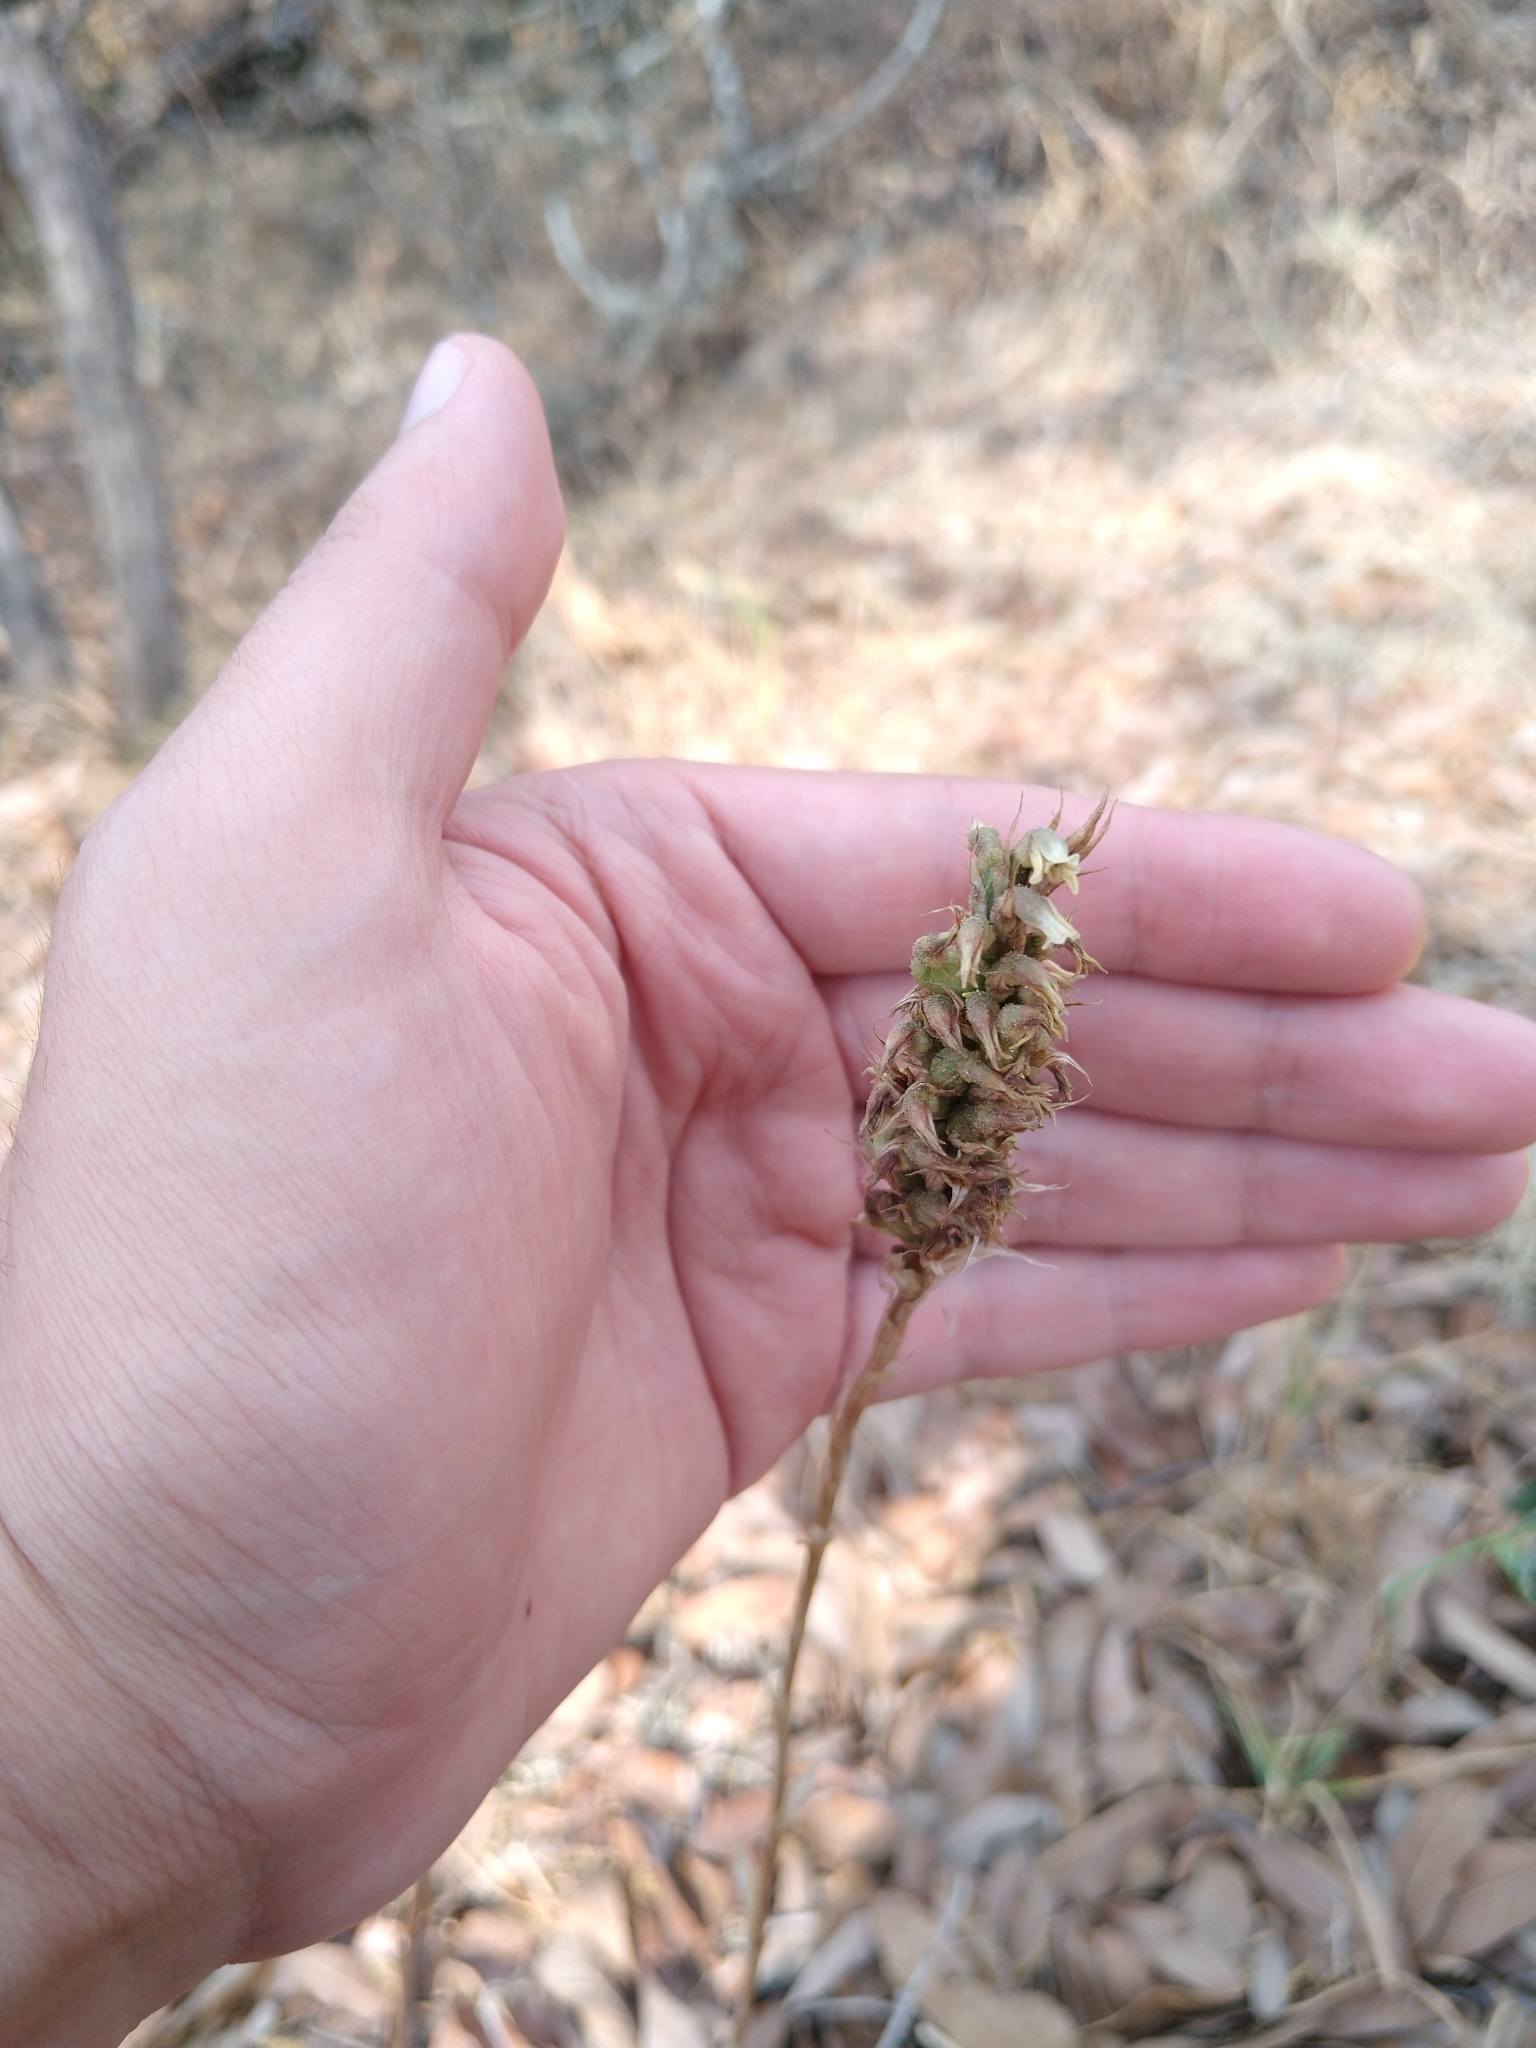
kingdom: Plantae
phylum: Tracheophyta
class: Liliopsida
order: Asparagales
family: Orchidaceae
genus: Aulosepalum
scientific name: Aulosepalum pyramidale
